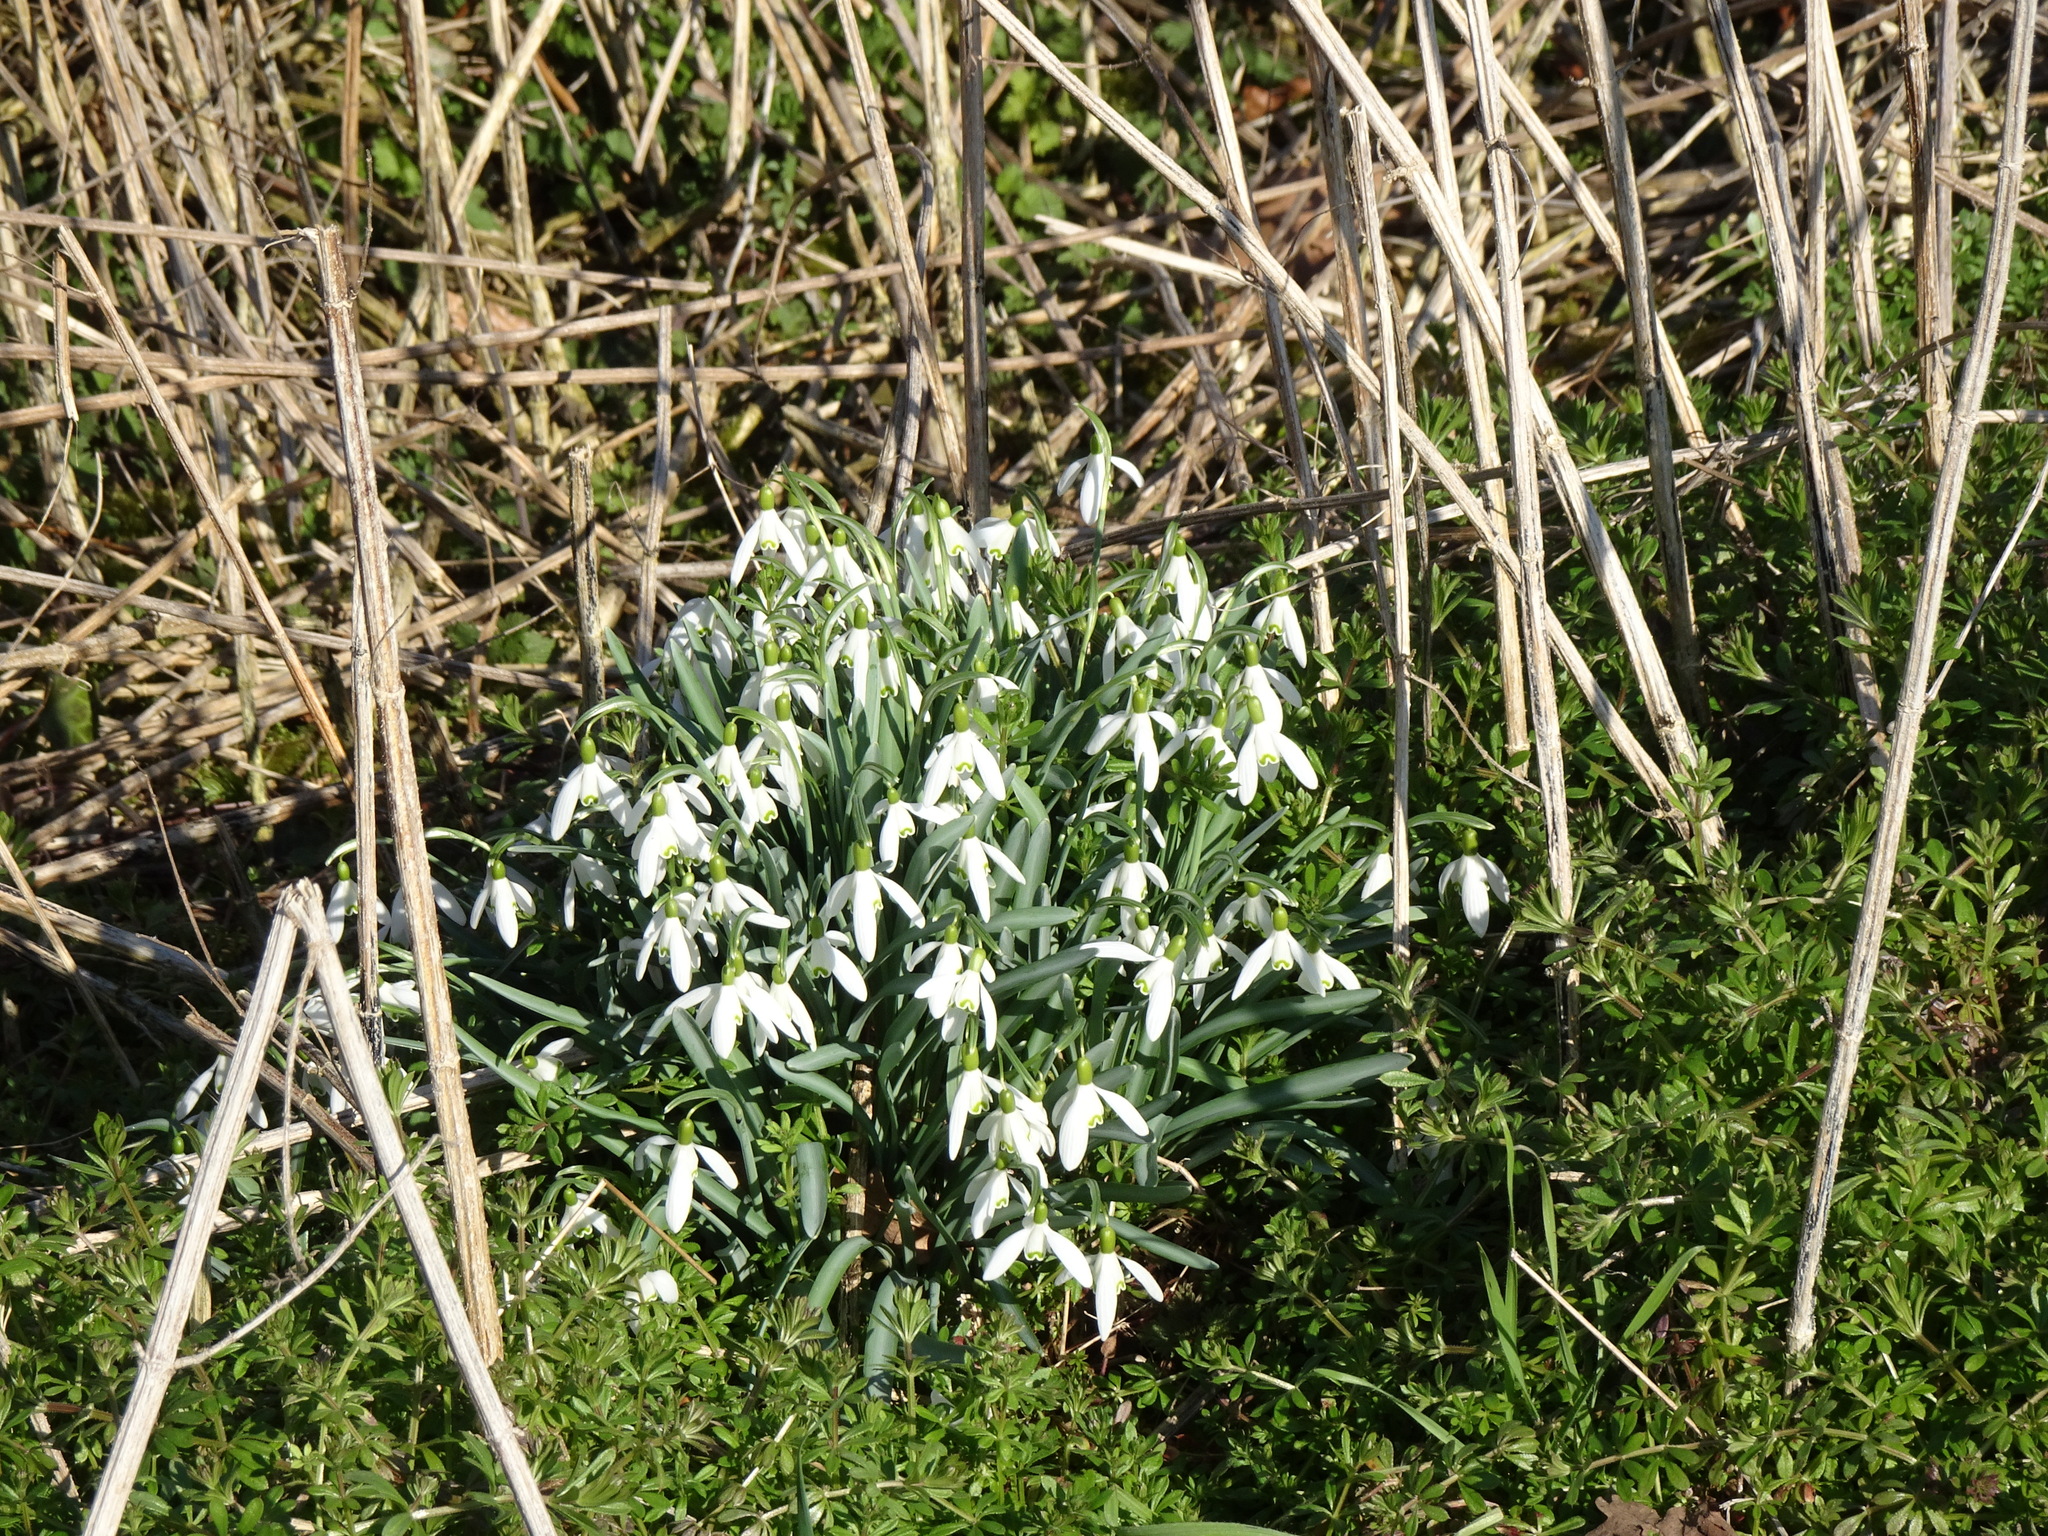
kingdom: Plantae
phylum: Tracheophyta
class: Liliopsida
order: Asparagales
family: Amaryllidaceae
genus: Galanthus
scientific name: Galanthus nivalis
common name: Snowdrop
